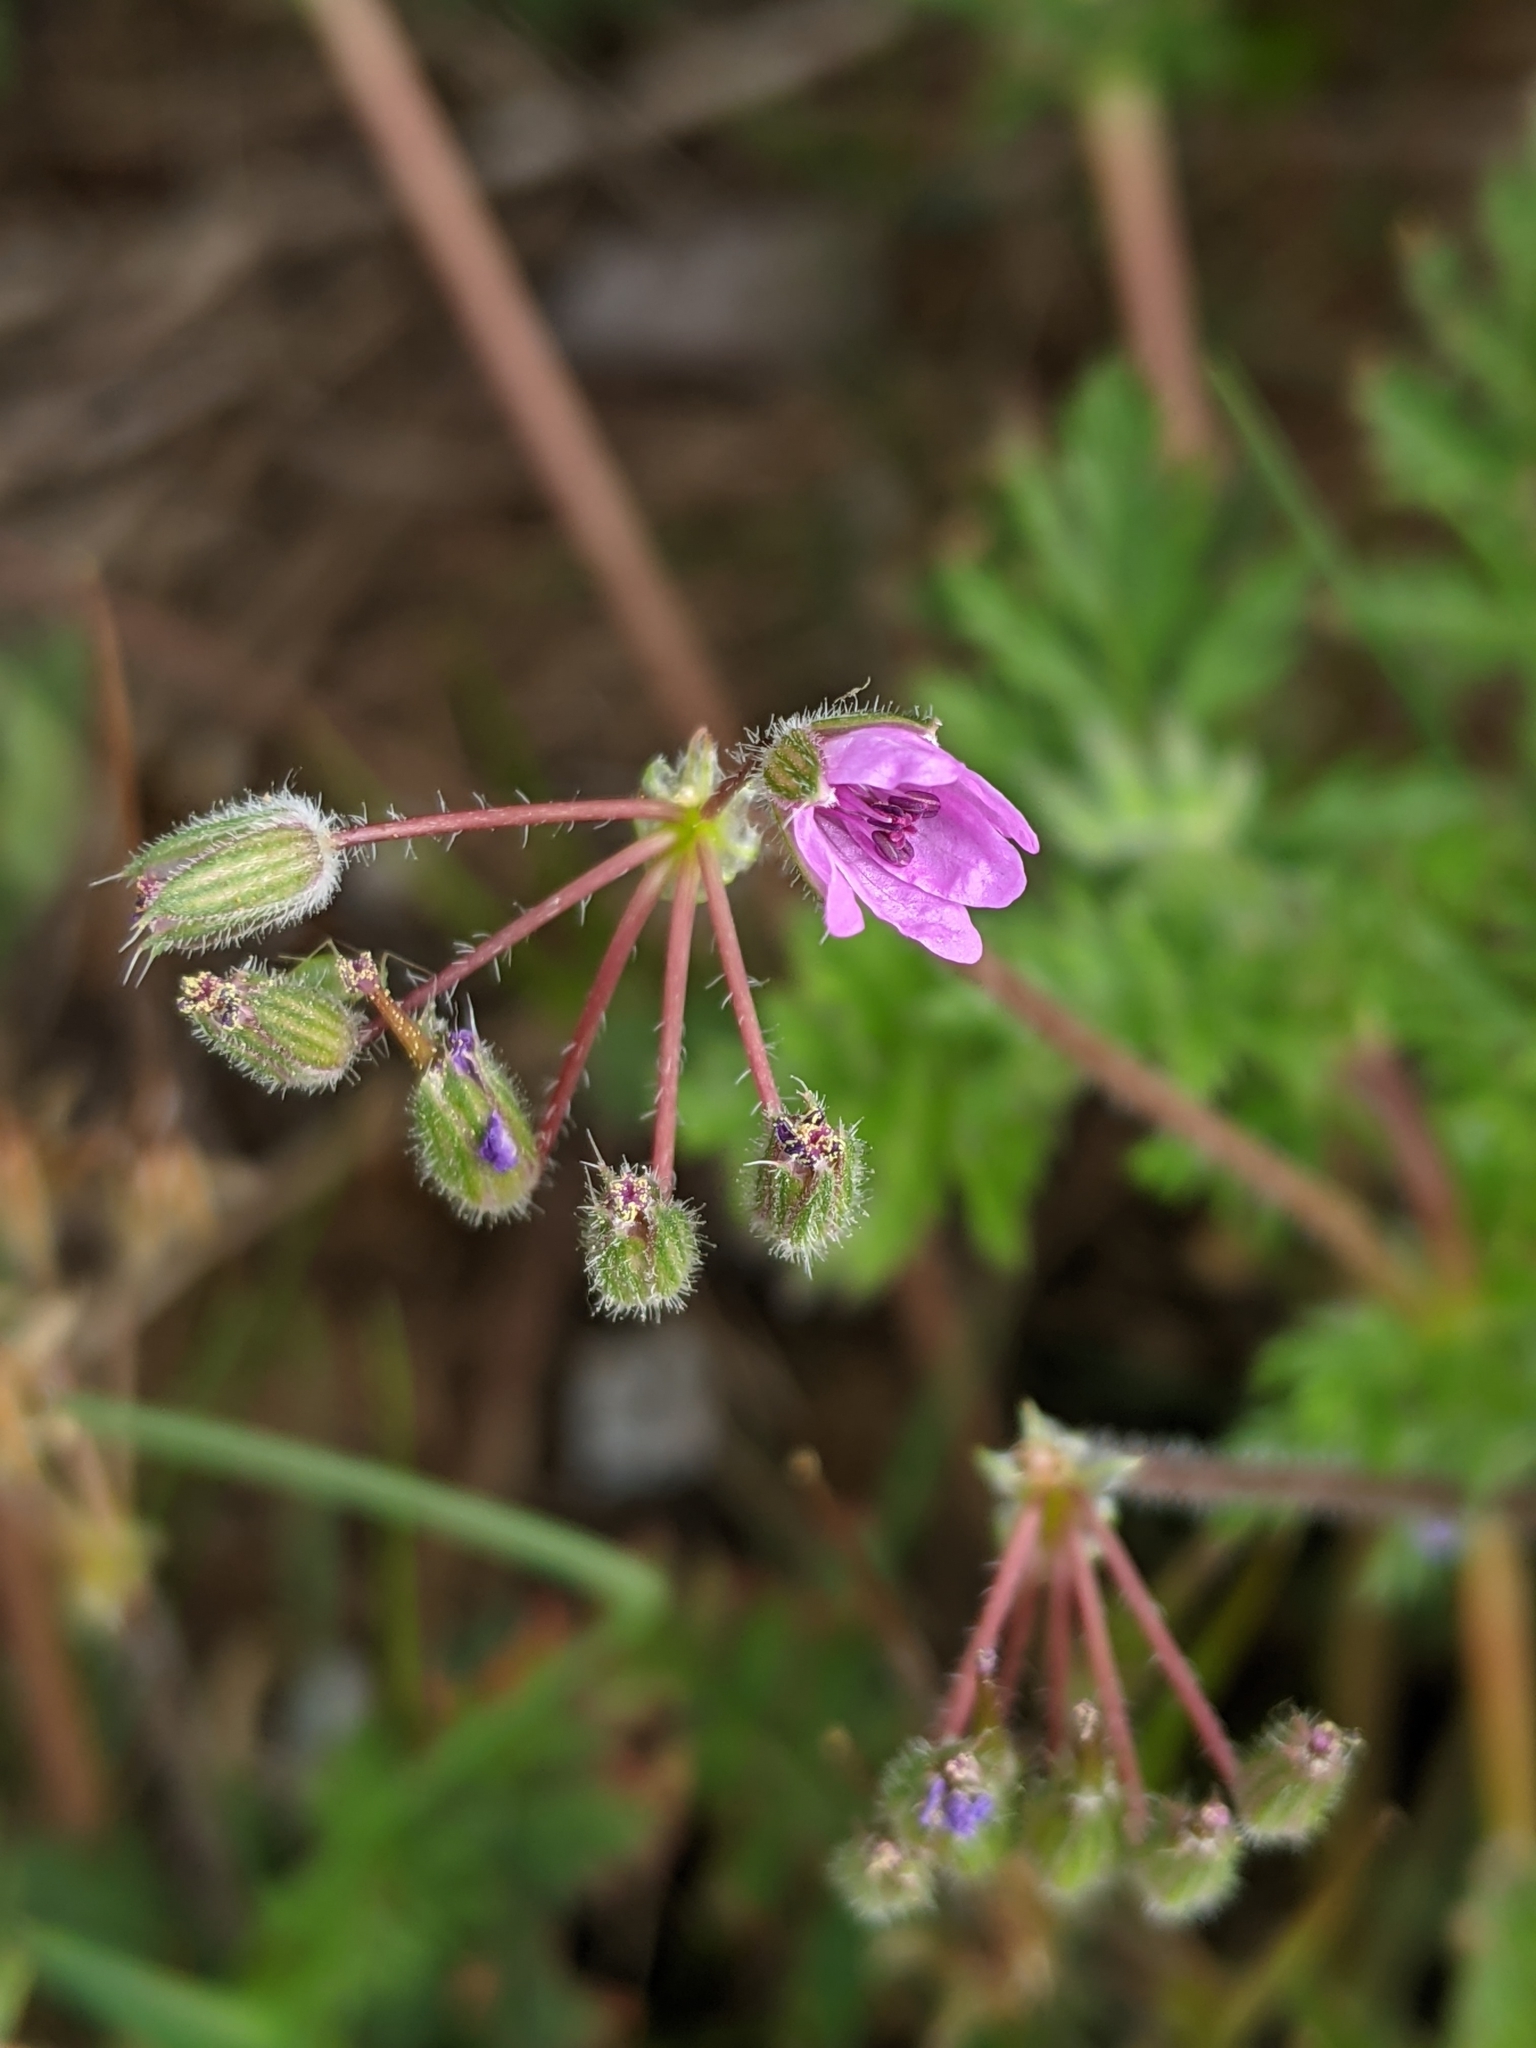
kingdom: Plantae
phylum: Tracheophyta
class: Magnoliopsida
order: Geraniales
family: Geraniaceae
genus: Erodium
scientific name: Erodium cicutarium
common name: Common stork's-bill
